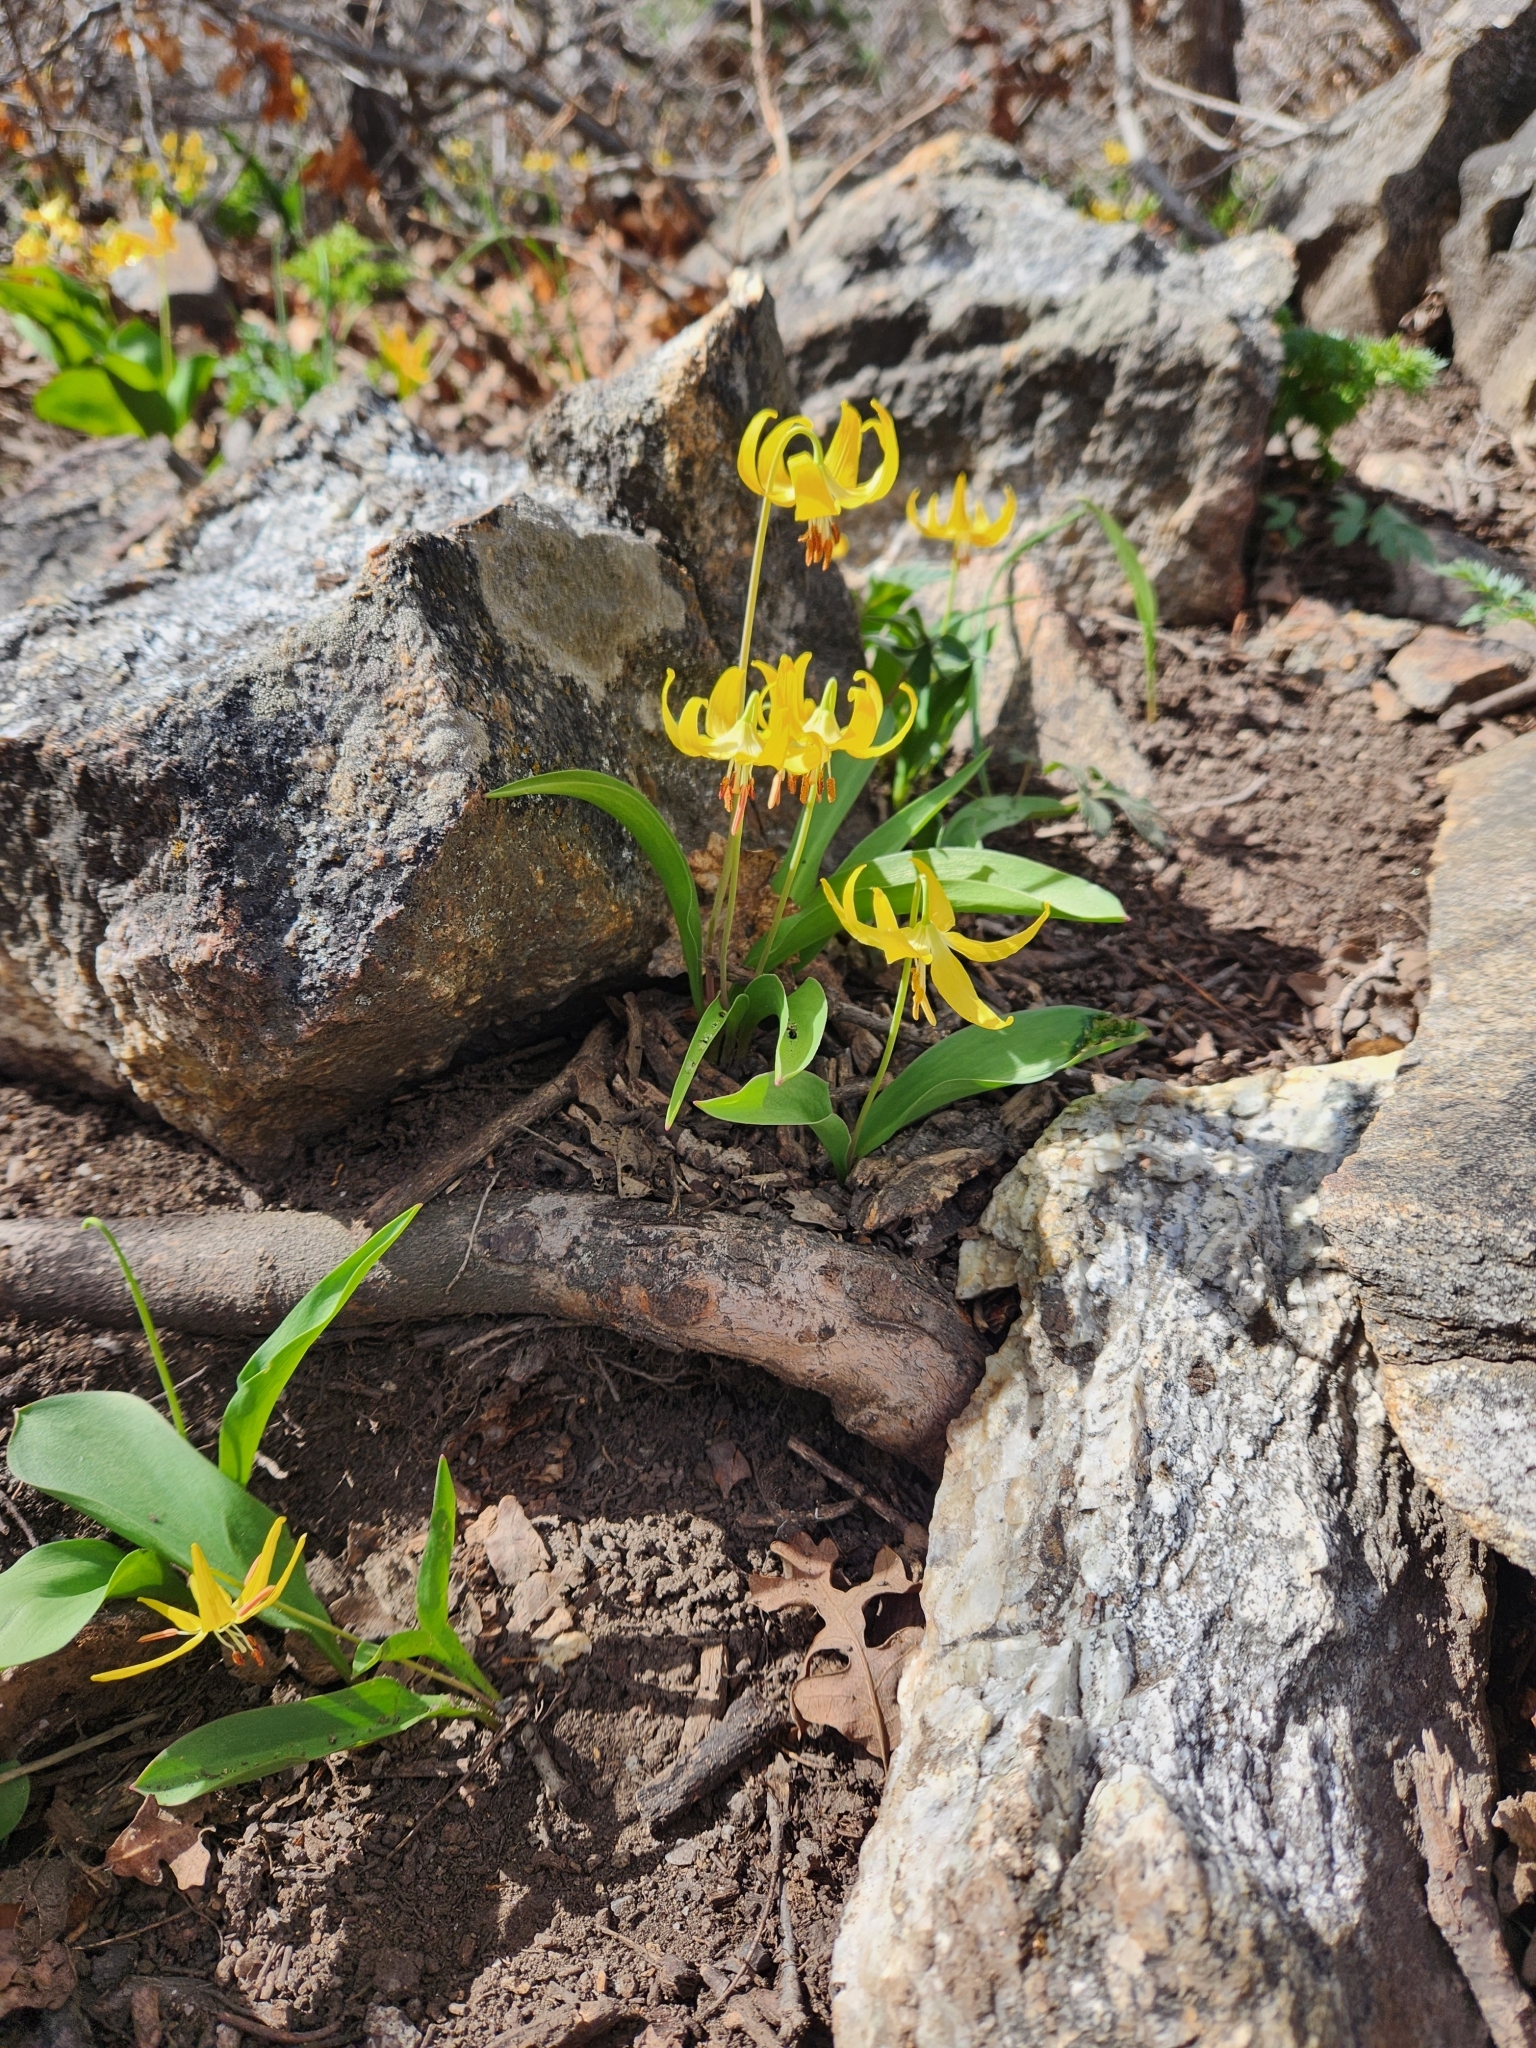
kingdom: Plantae
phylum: Tracheophyta
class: Liliopsida
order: Liliales
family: Liliaceae
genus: Erythronium
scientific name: Erythronium grandiflorum
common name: Avalanche-lily
